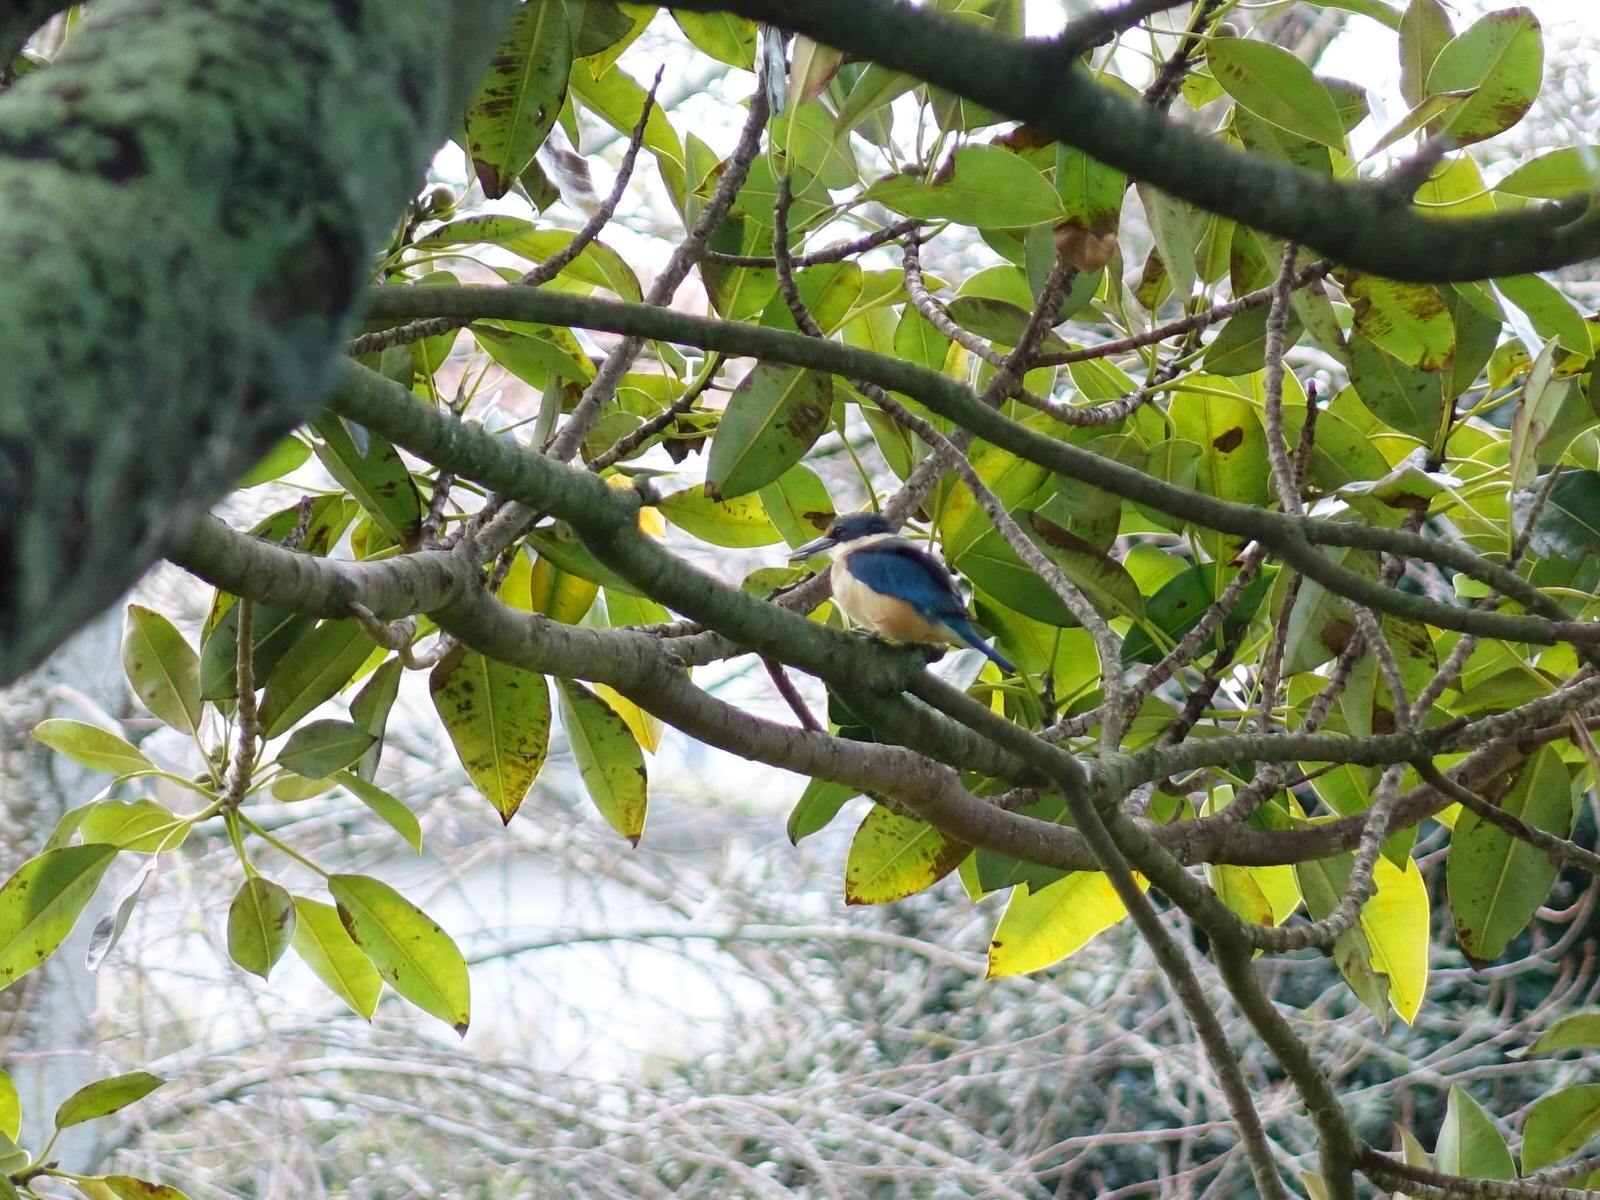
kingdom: Animalia
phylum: Chordata
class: Aves
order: Coraciiformes
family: Alcedinidae
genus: Todiramphus
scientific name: Todiramphus sanctus
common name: Sacred kingfisher
